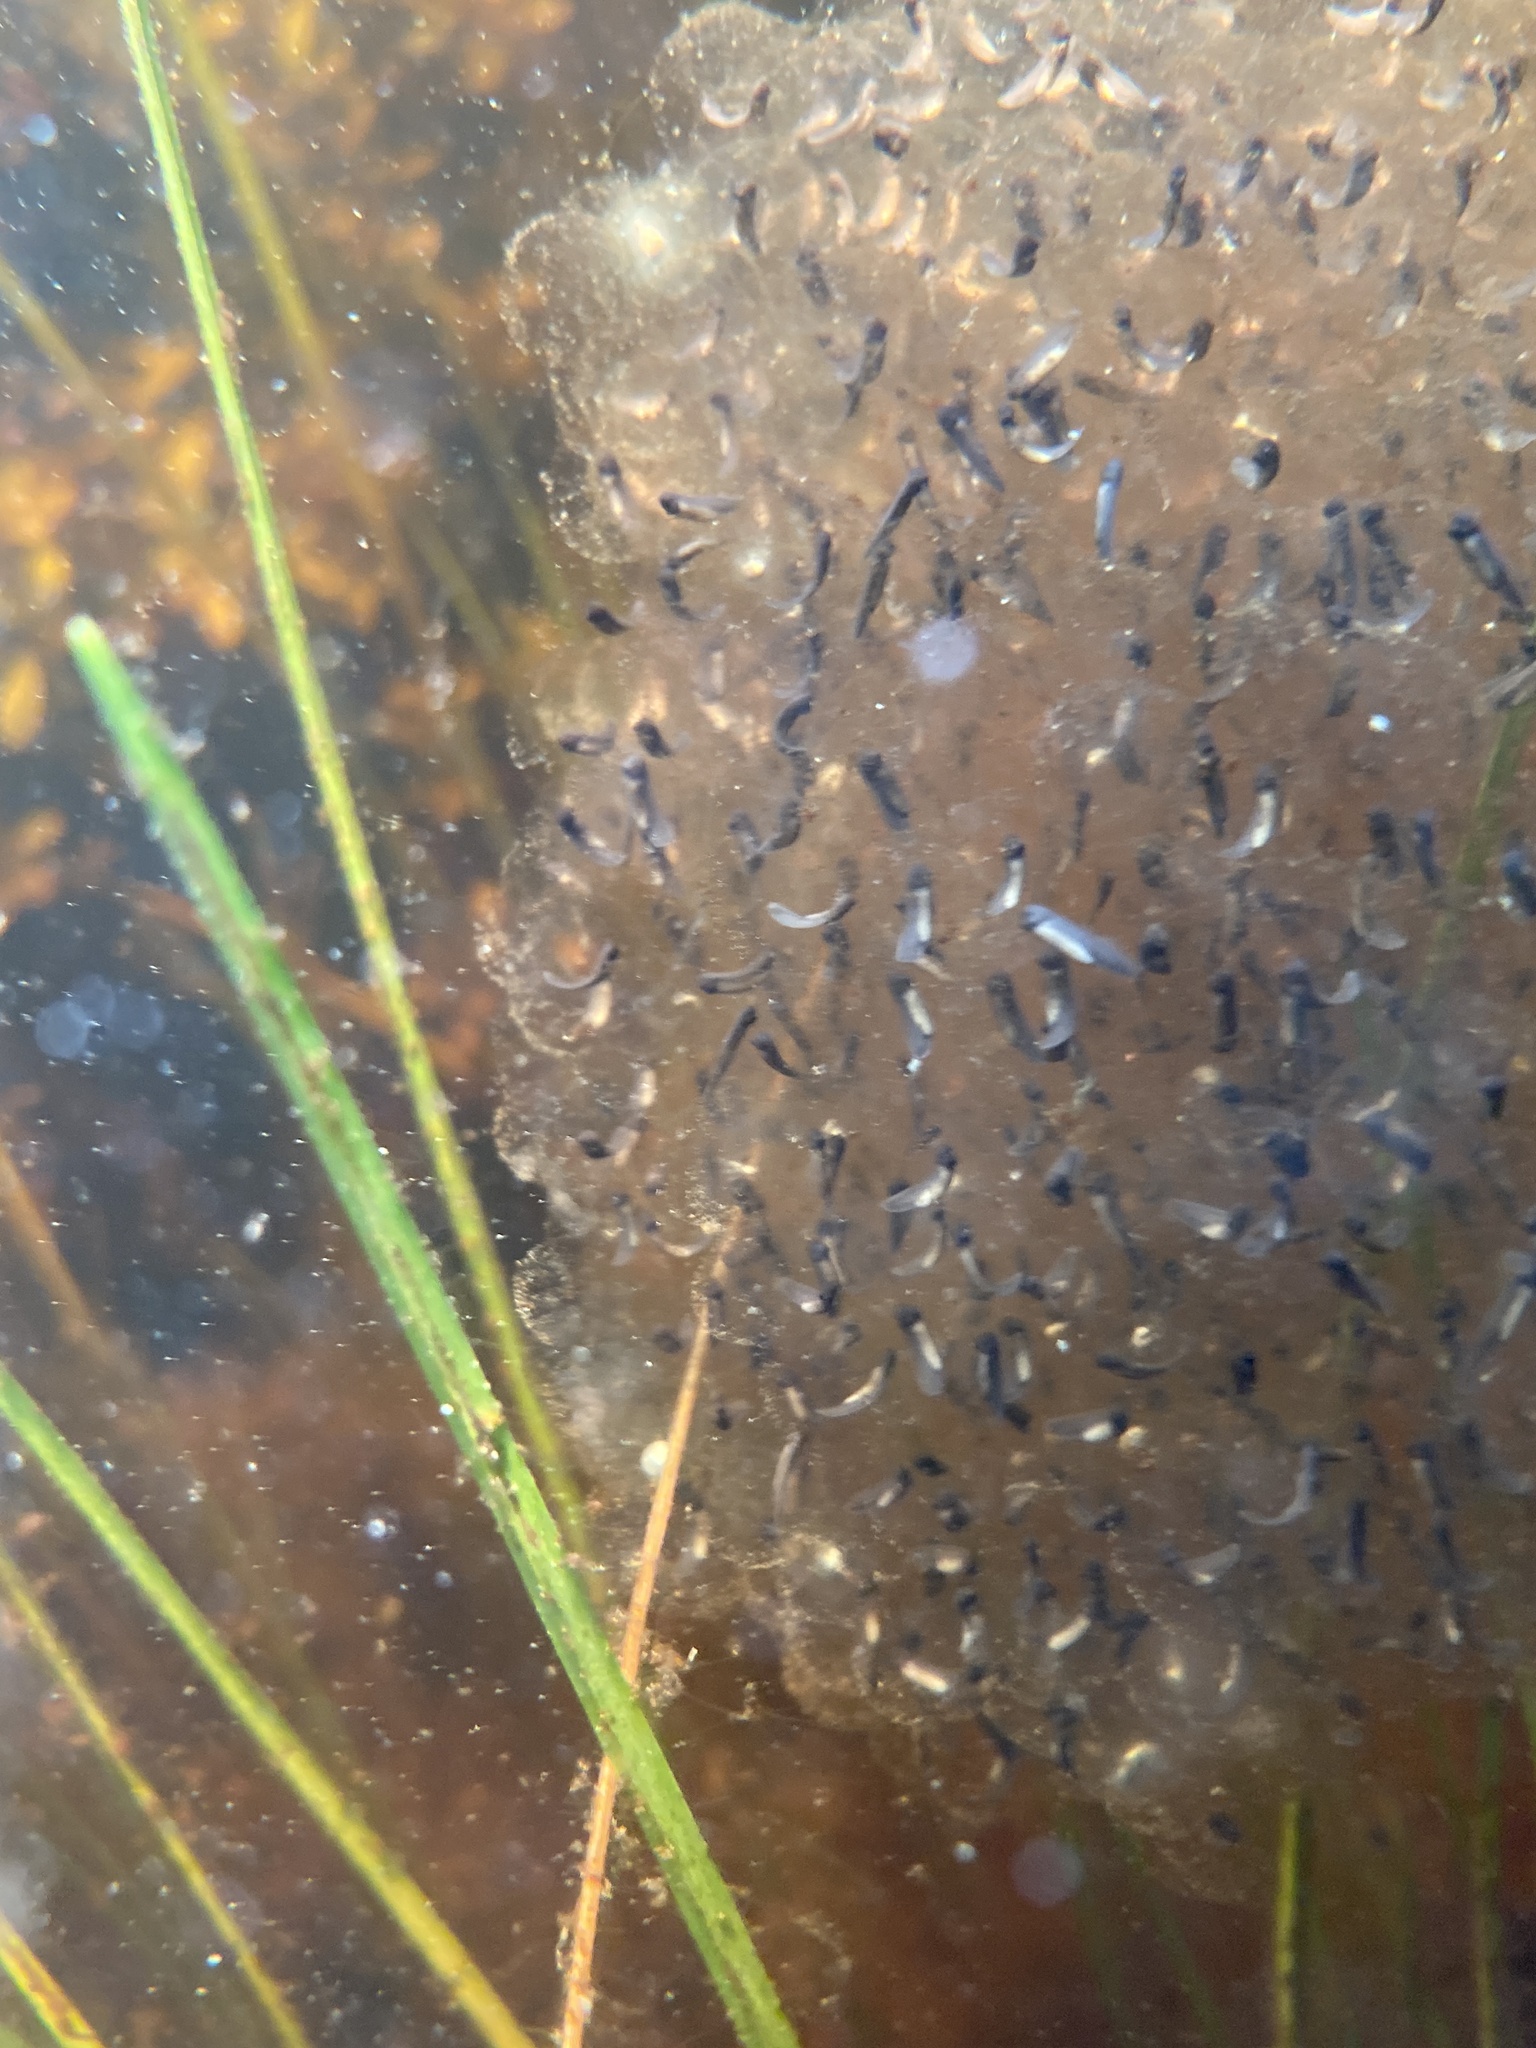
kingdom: Animalia
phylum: Chordata
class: Amphibia
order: Anura
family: Ranidae
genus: Lithobates
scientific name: Lithobates palustris
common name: Pickerel frog
